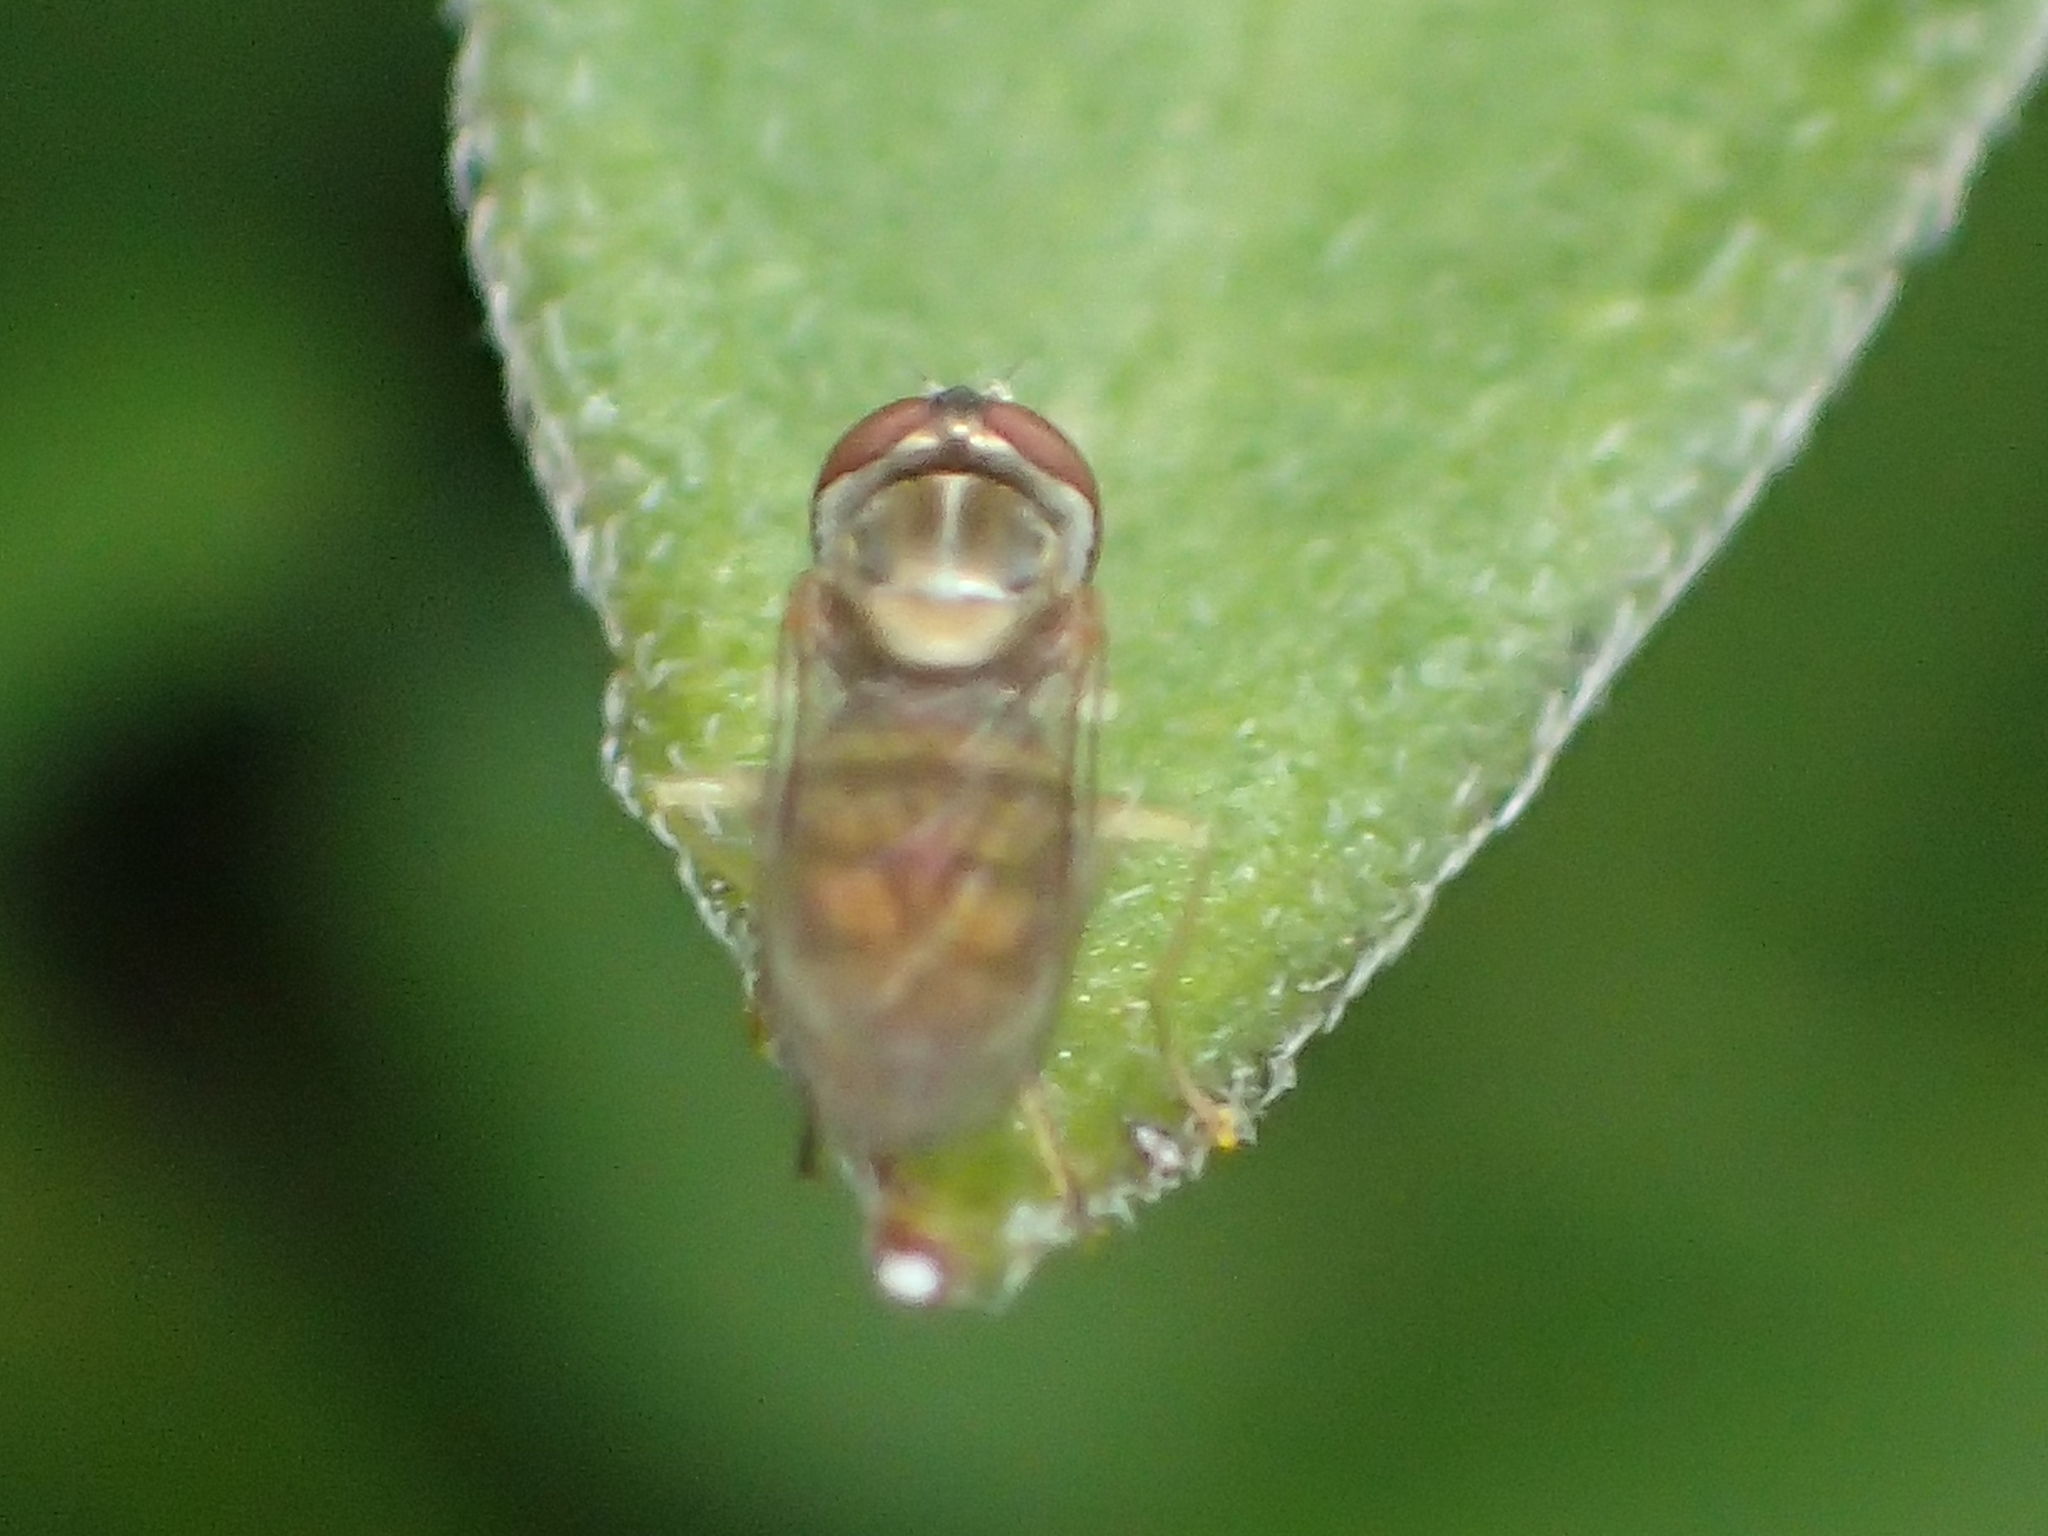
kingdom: Animalia
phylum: Arthropoda
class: Insecta
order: Diptera
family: Syrphidae
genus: Toxomerus
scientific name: Toxomerus marginatus
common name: Syrphid fly
